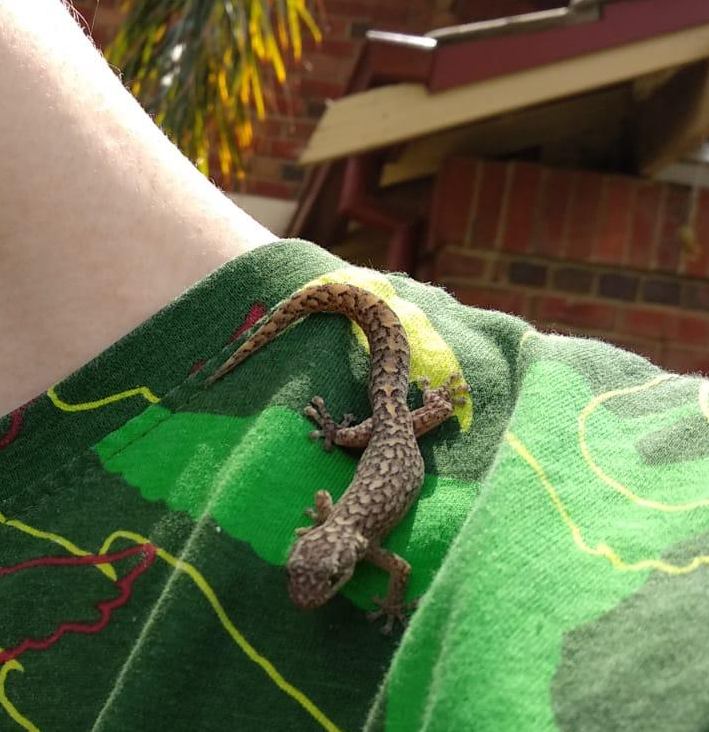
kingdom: Animalia
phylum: Chordata
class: Squamata
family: Gekkonidae
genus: Christinus
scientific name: Christinus marmoratus
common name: Marbled gecko
